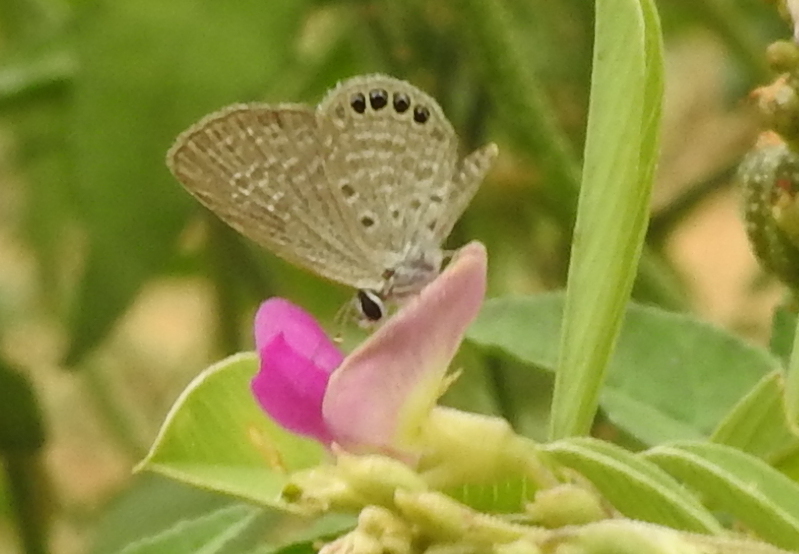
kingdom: Animalia
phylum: Arthropoda
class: Insecta
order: Lepidoptera
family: Lycaenidae
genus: Freyeria
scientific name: Freyeria putli
